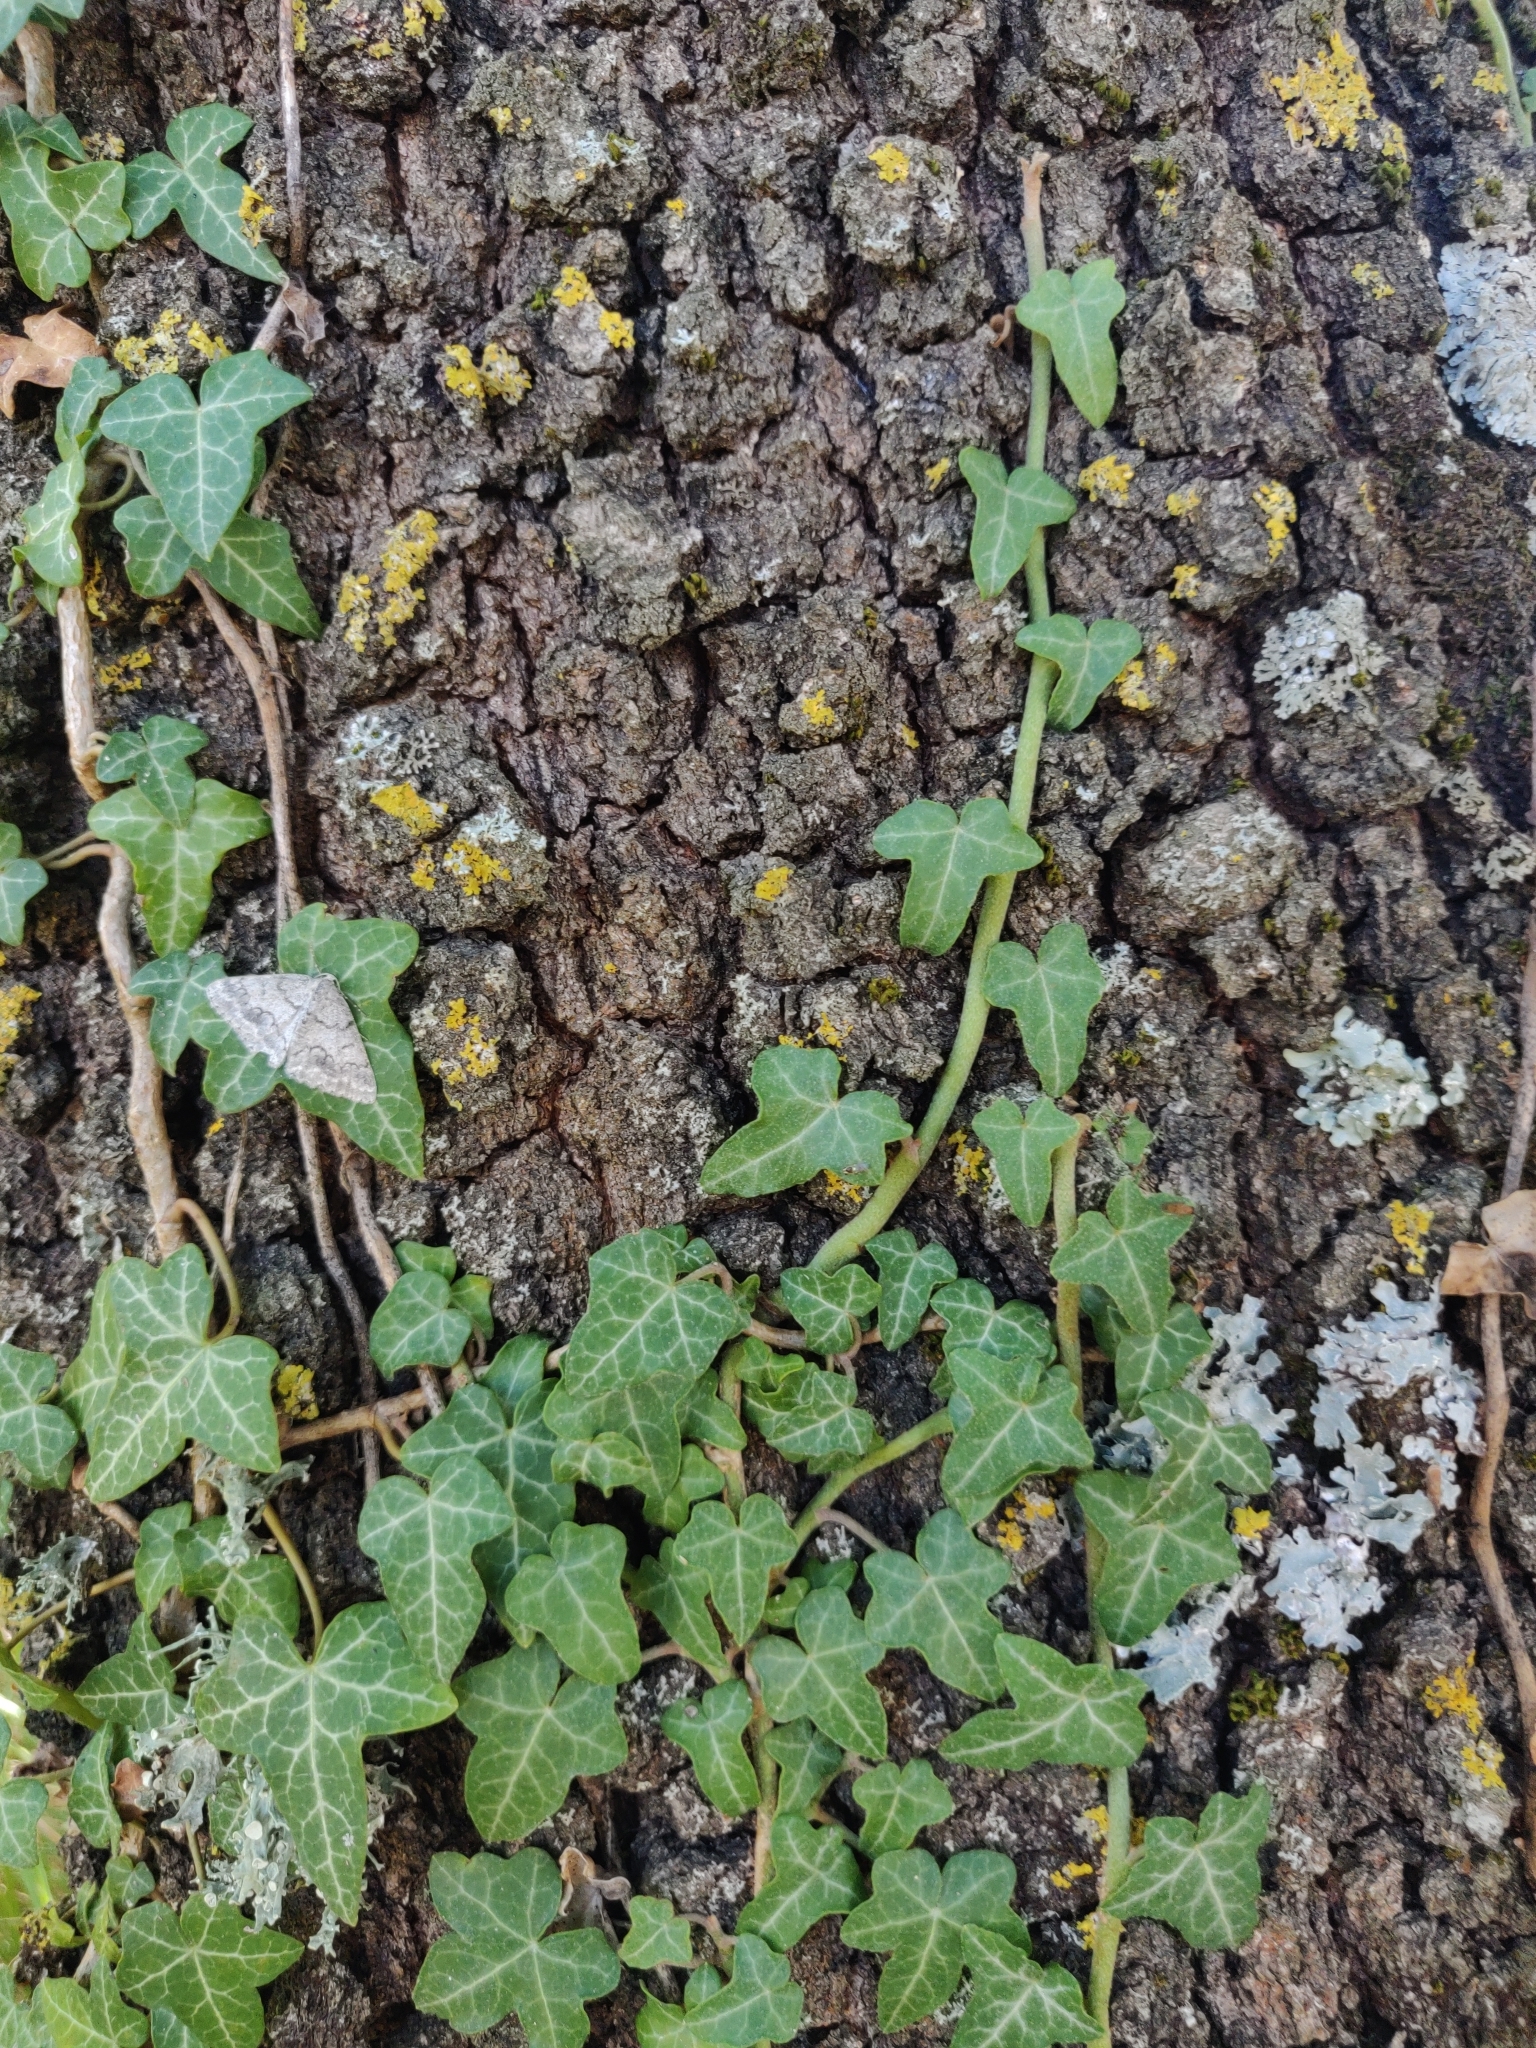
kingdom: Plantae
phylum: Tracheophyta
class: Magnoliopsida
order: Apiales
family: Araliaceae
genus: Hedera
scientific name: Hedera helix
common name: Ivy
